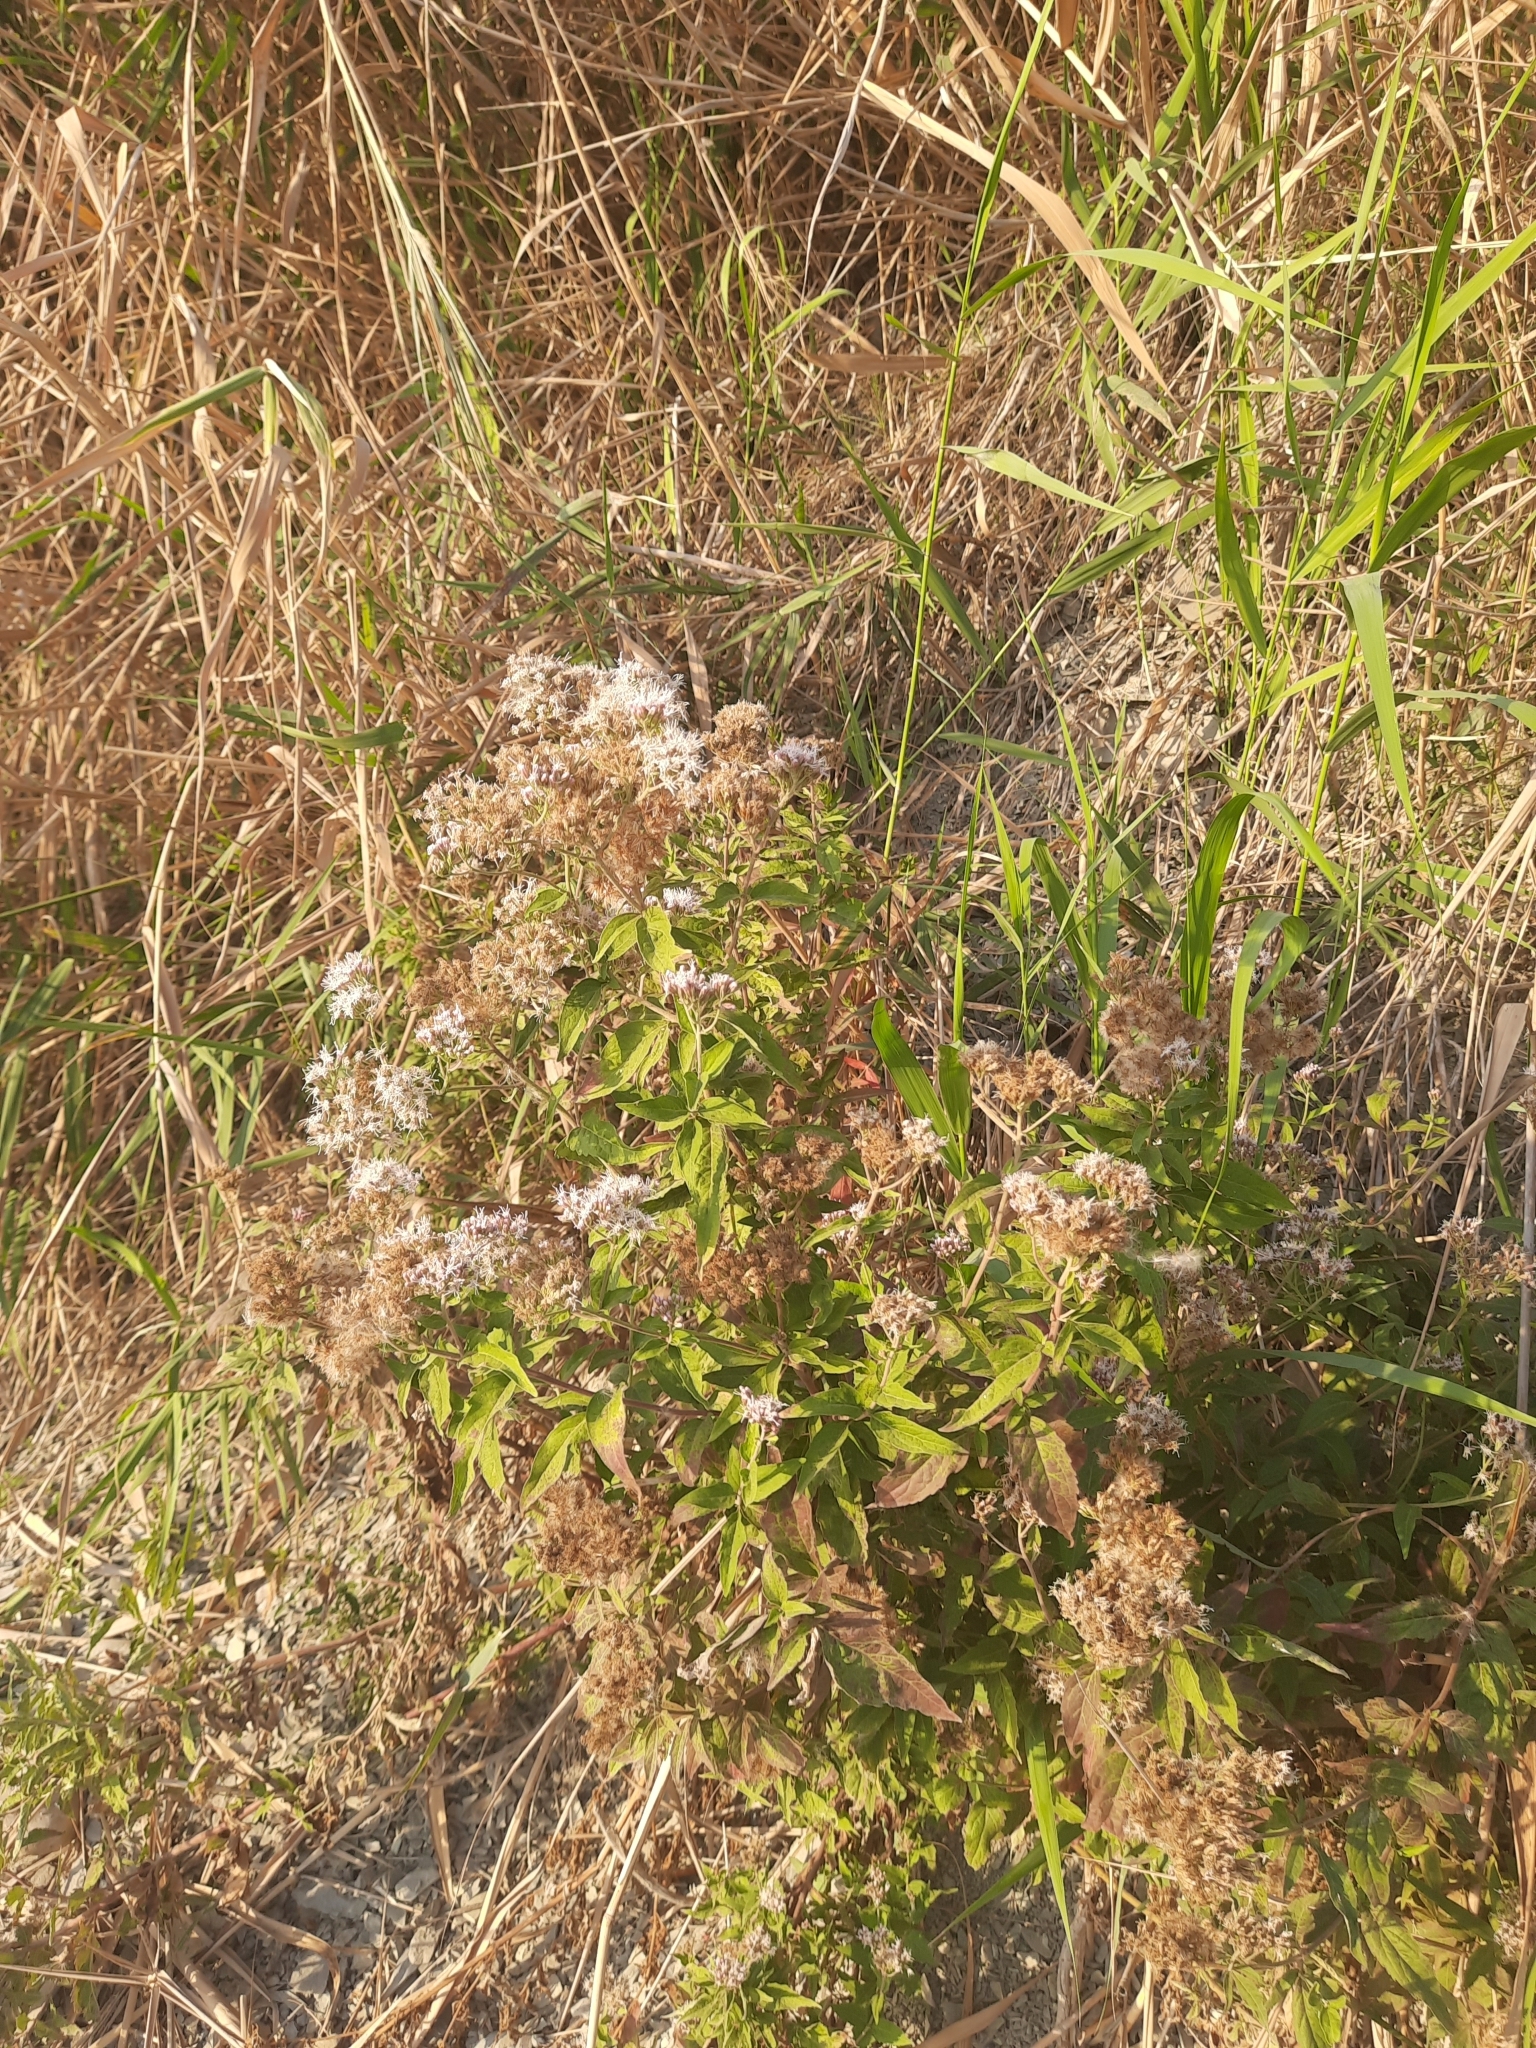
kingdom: Plantae
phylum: Tracheophyta
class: Magnoliopsida
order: Asterales
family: Asteraceae
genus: Eupatorium
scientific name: Eupatorium cannabinum
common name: Hemp-agrimony
